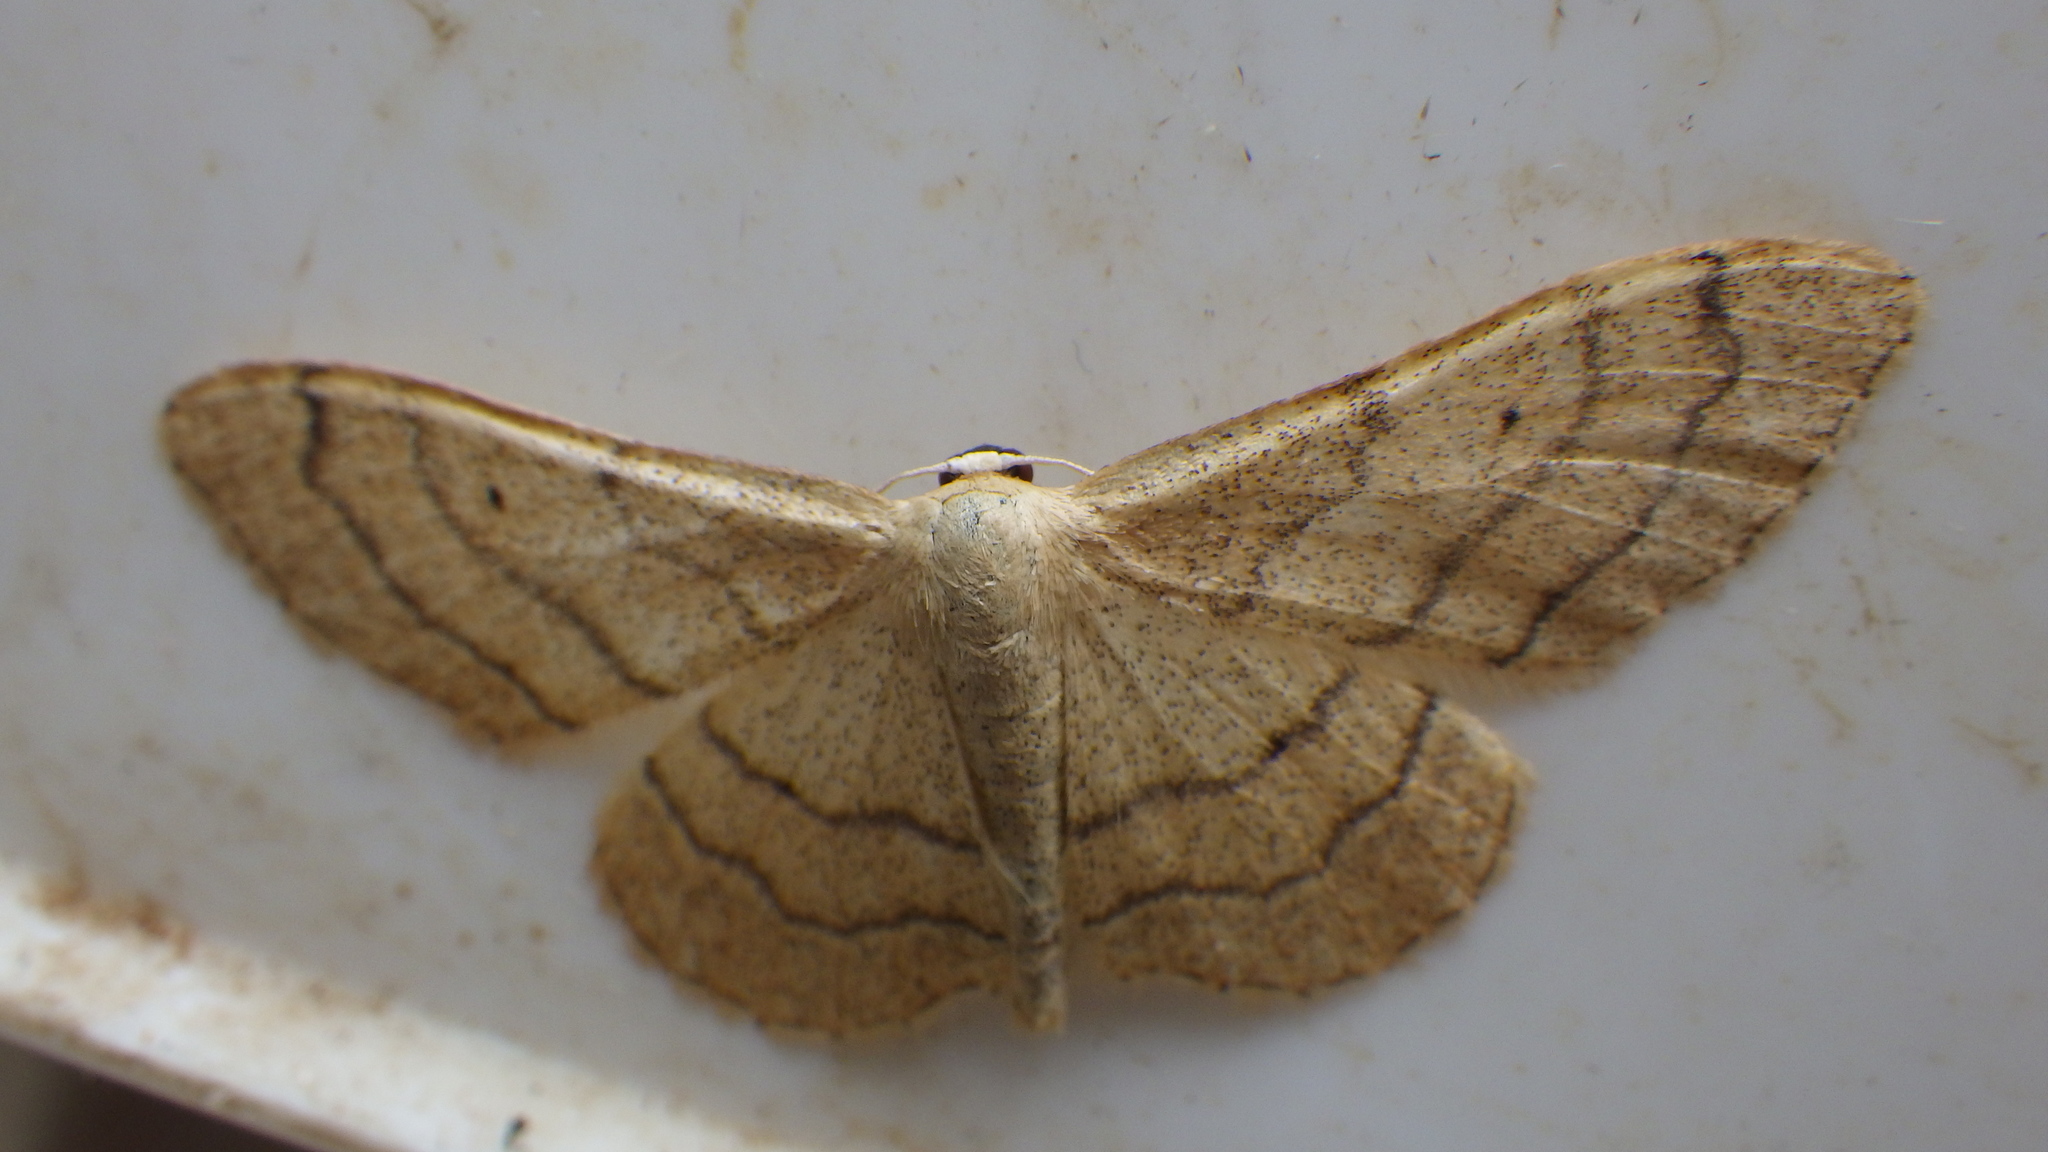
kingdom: Animalia
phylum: Arthropoda
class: Insecta
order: Lepidoptera
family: Geometridae
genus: Idaea
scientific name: Idaea aversata
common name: Riband wave
